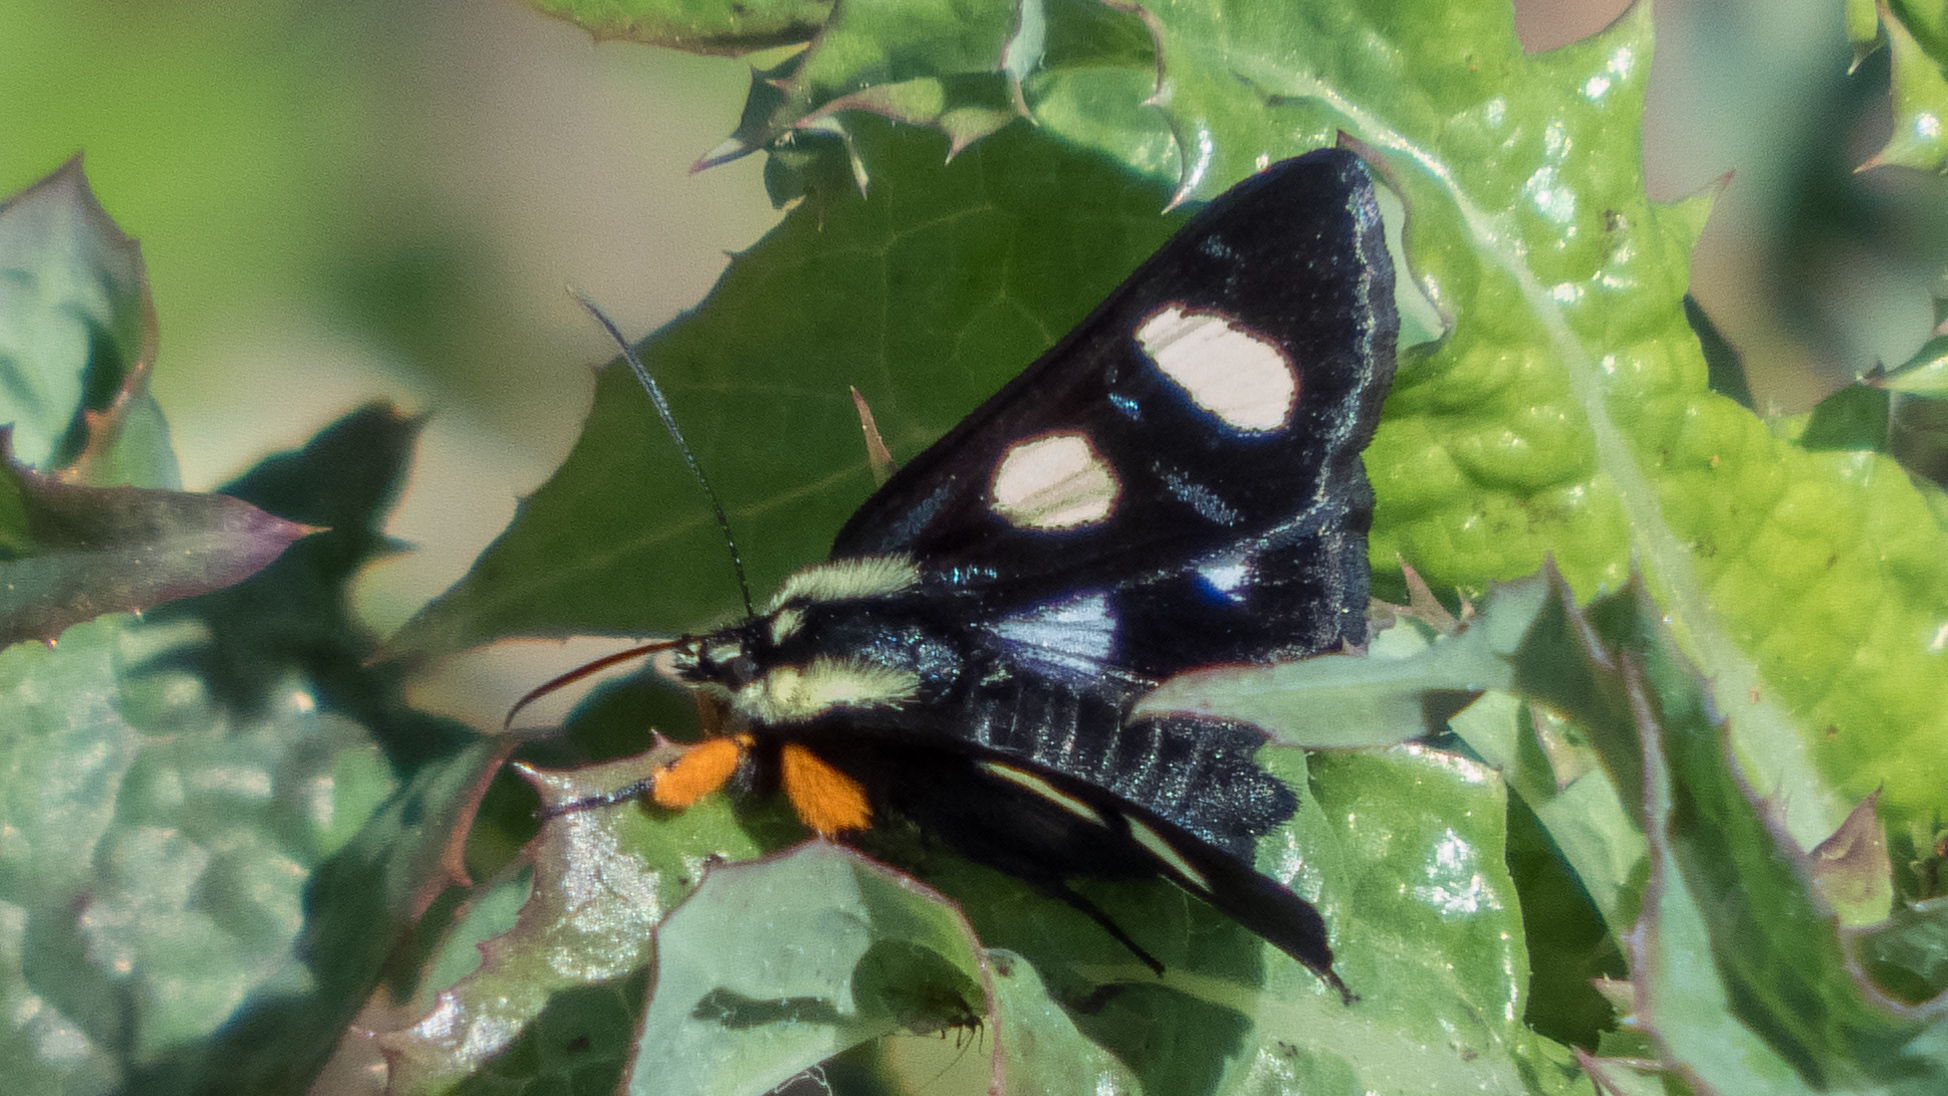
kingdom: Animalia
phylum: Arthropoda
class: Insecta
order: Lepidoptera
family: Noctuidae
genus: Alypia
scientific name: Alypia octomaculata
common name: Eight-spotted forester
